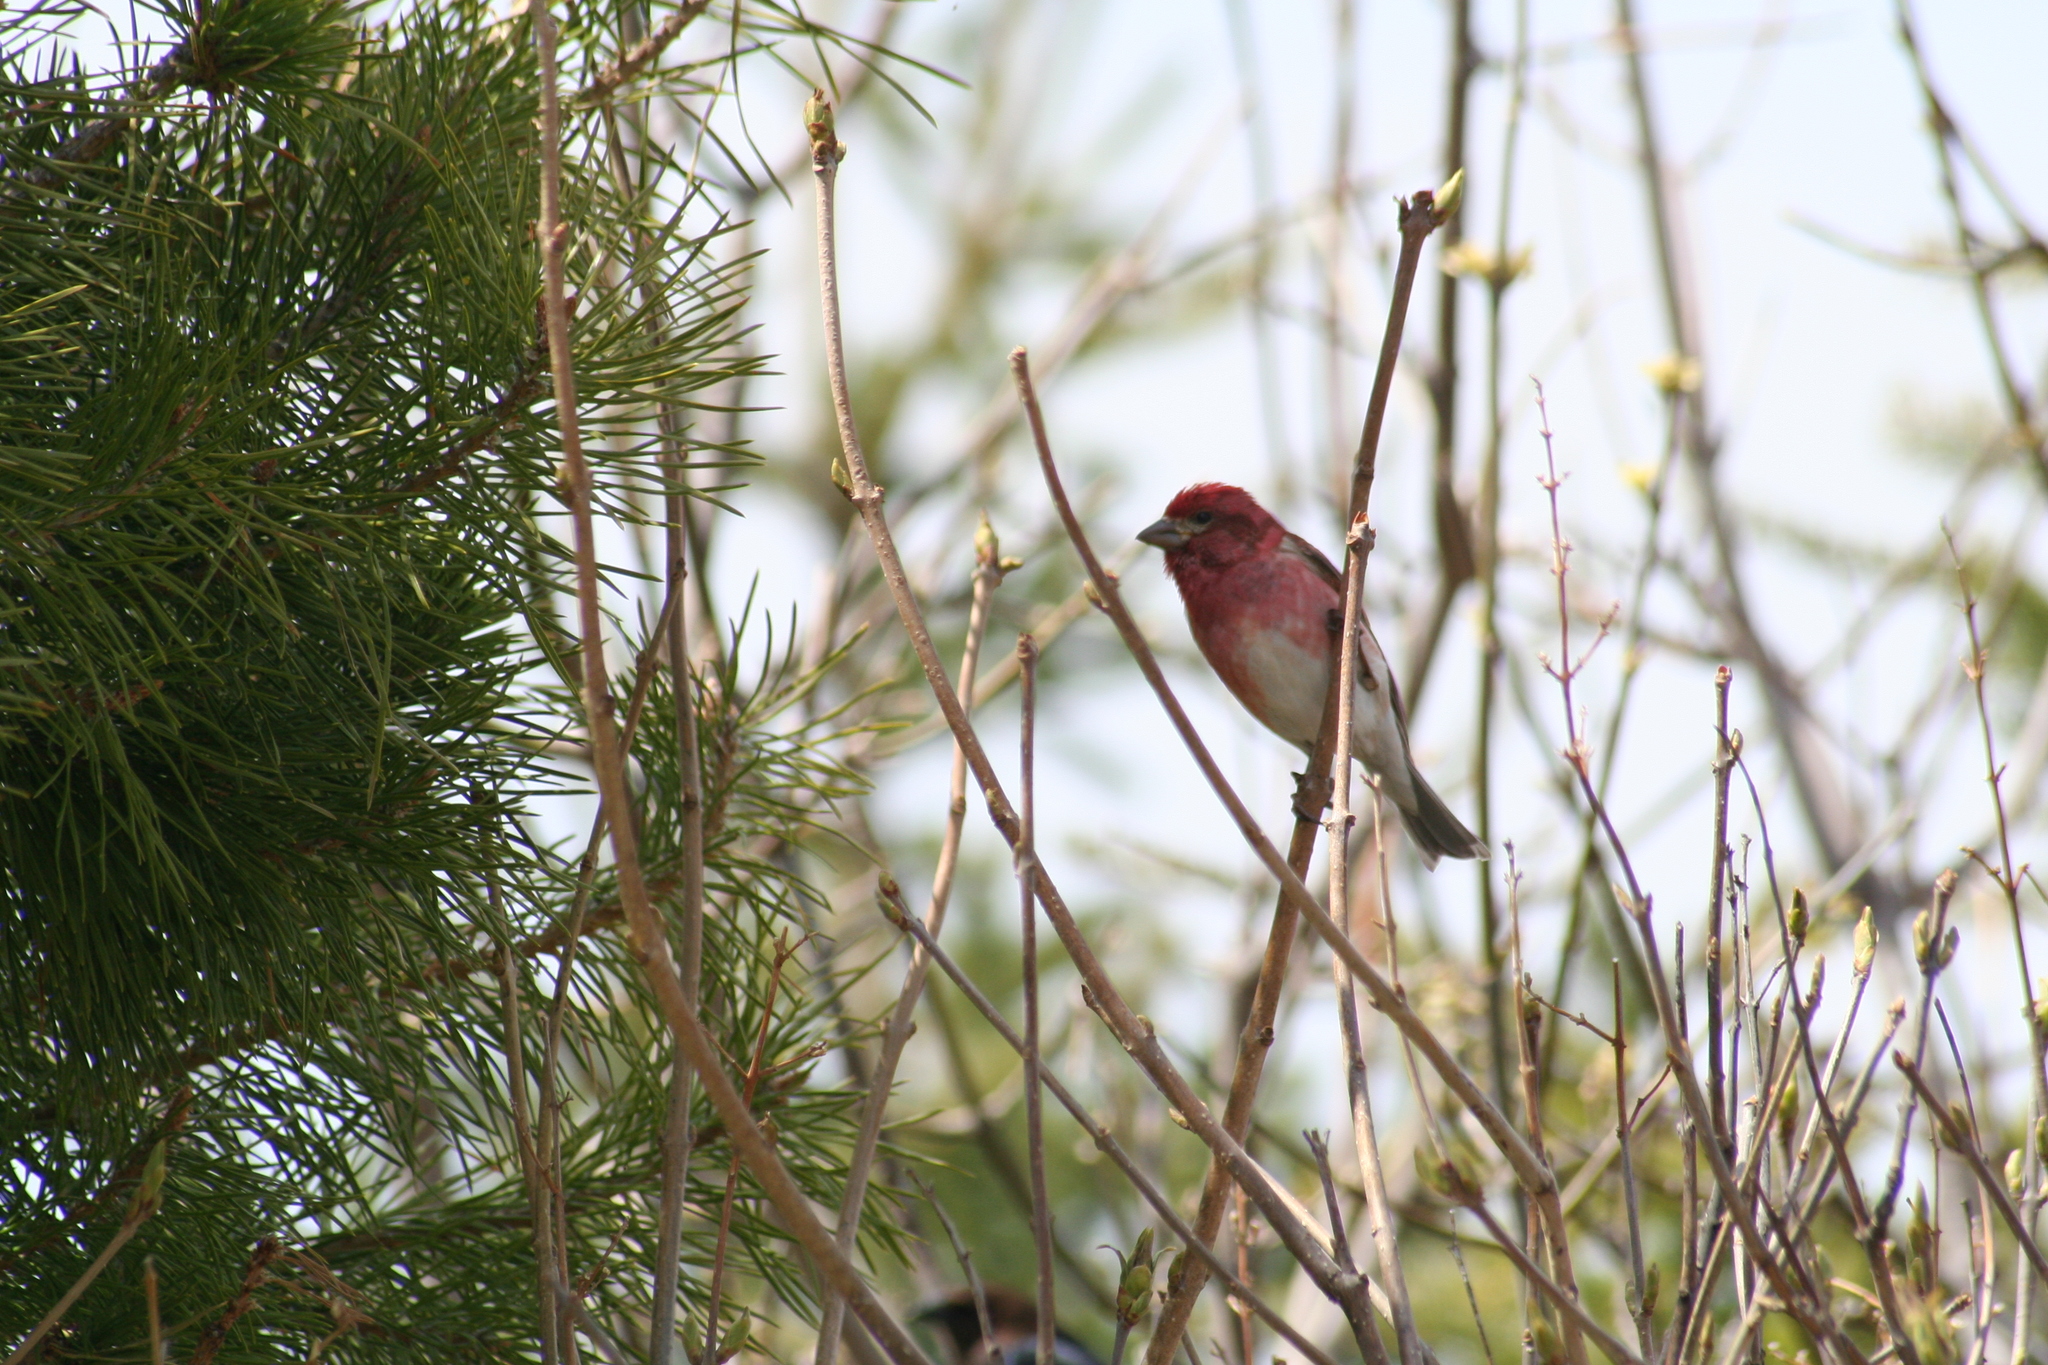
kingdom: Animalia
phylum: Chordata
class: Aves
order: Passeriformes
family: Fringillidae
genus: Haemorhous
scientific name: Haemorhous purpureus
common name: Purple finch
